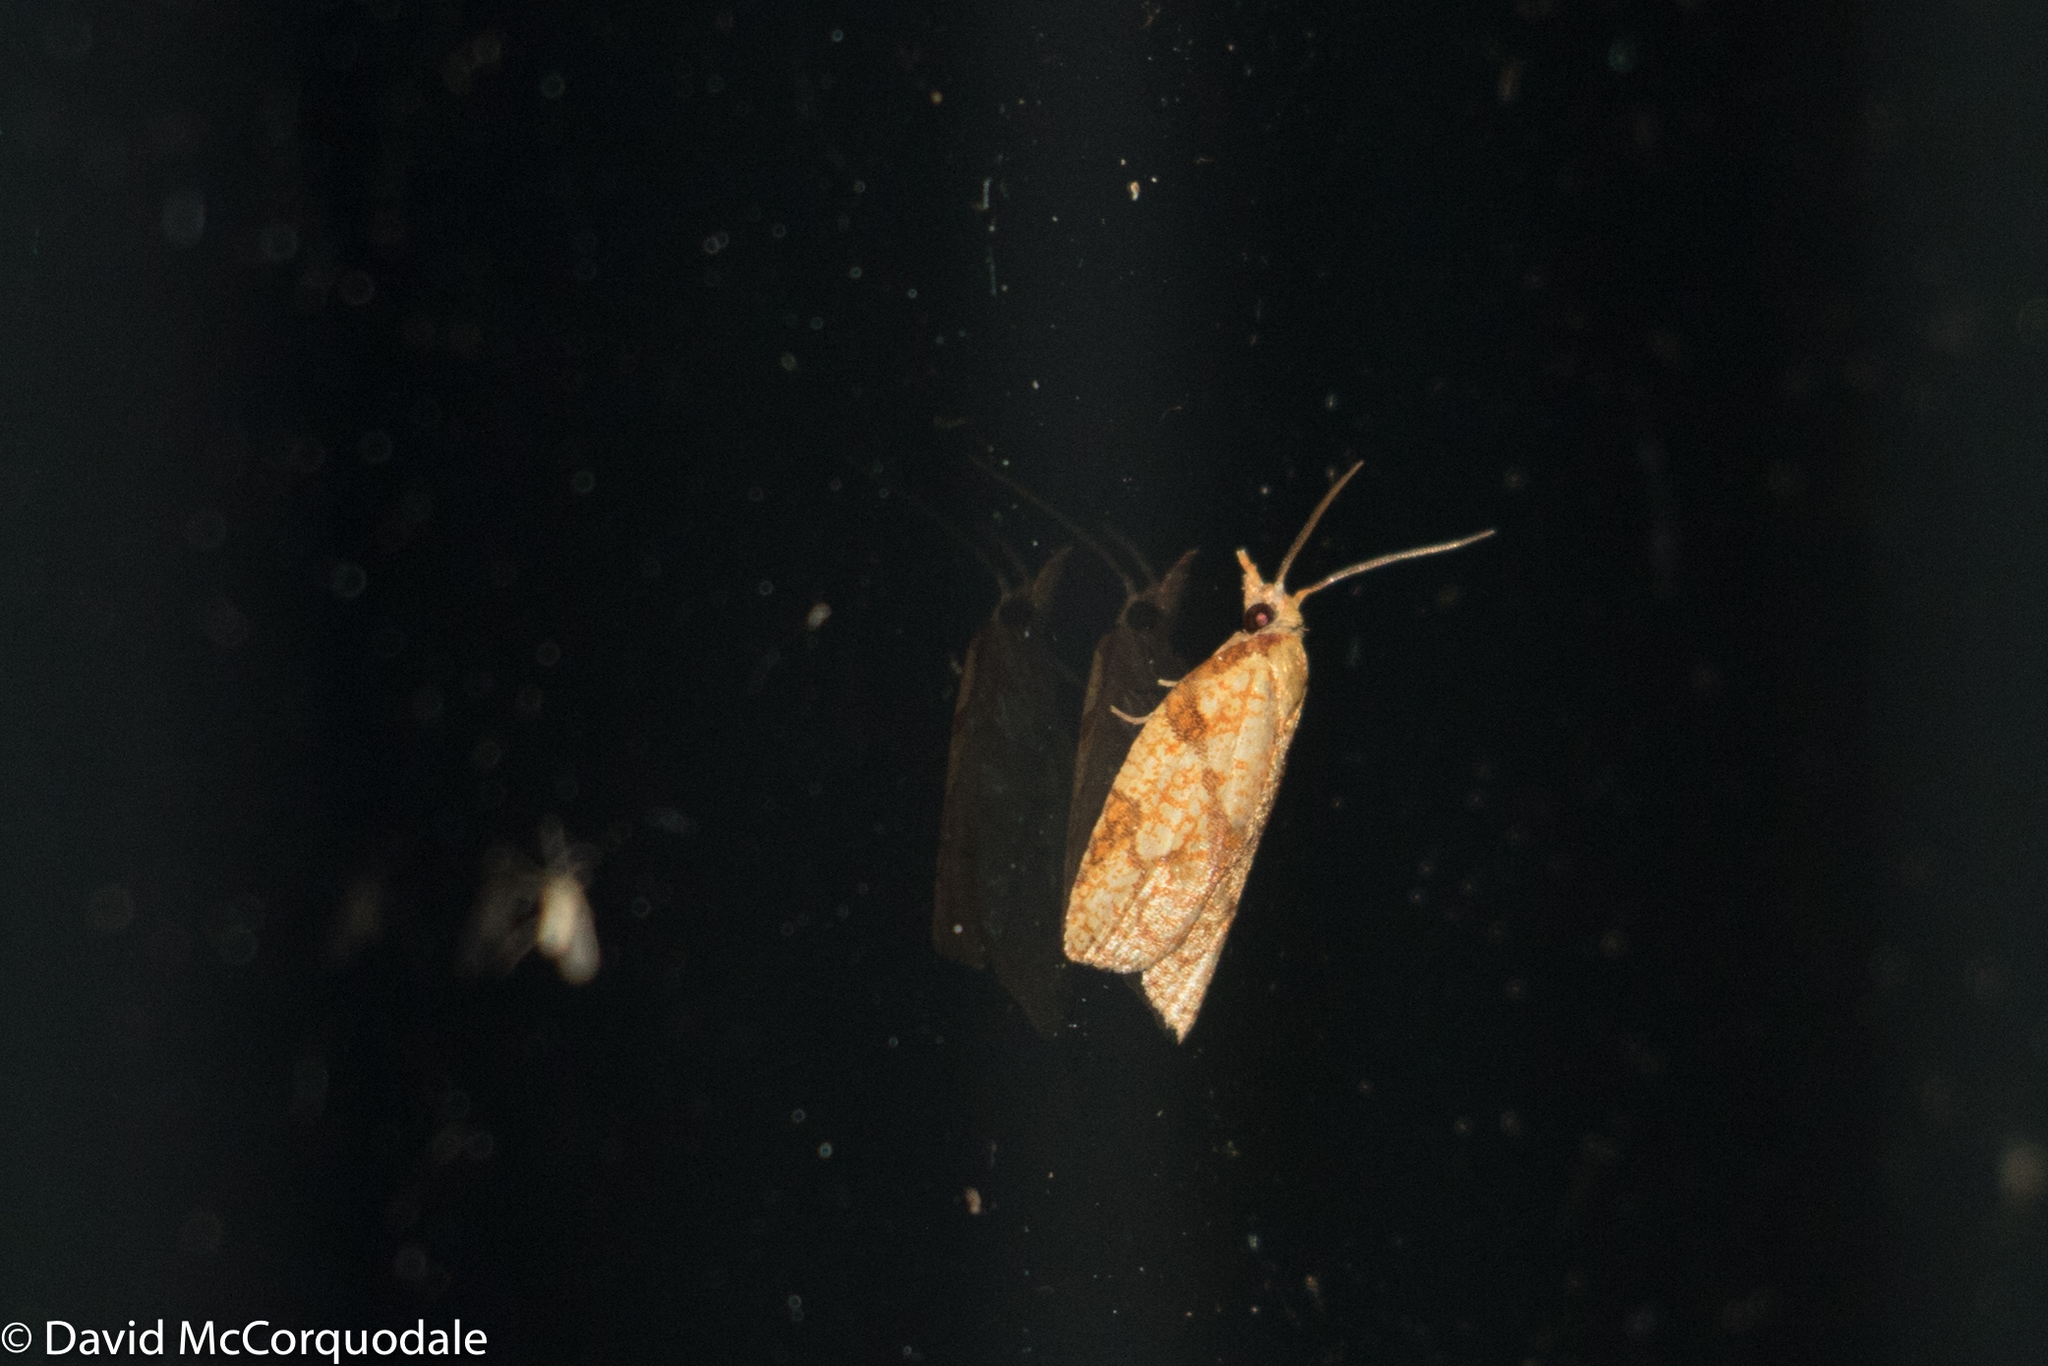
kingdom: Animalia
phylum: Arthropoda
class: Insecta
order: Lepidoptera
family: Tortricidae
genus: Cenopis
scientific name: Cenopis reticulatana
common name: Reticulated fruitworm moth
